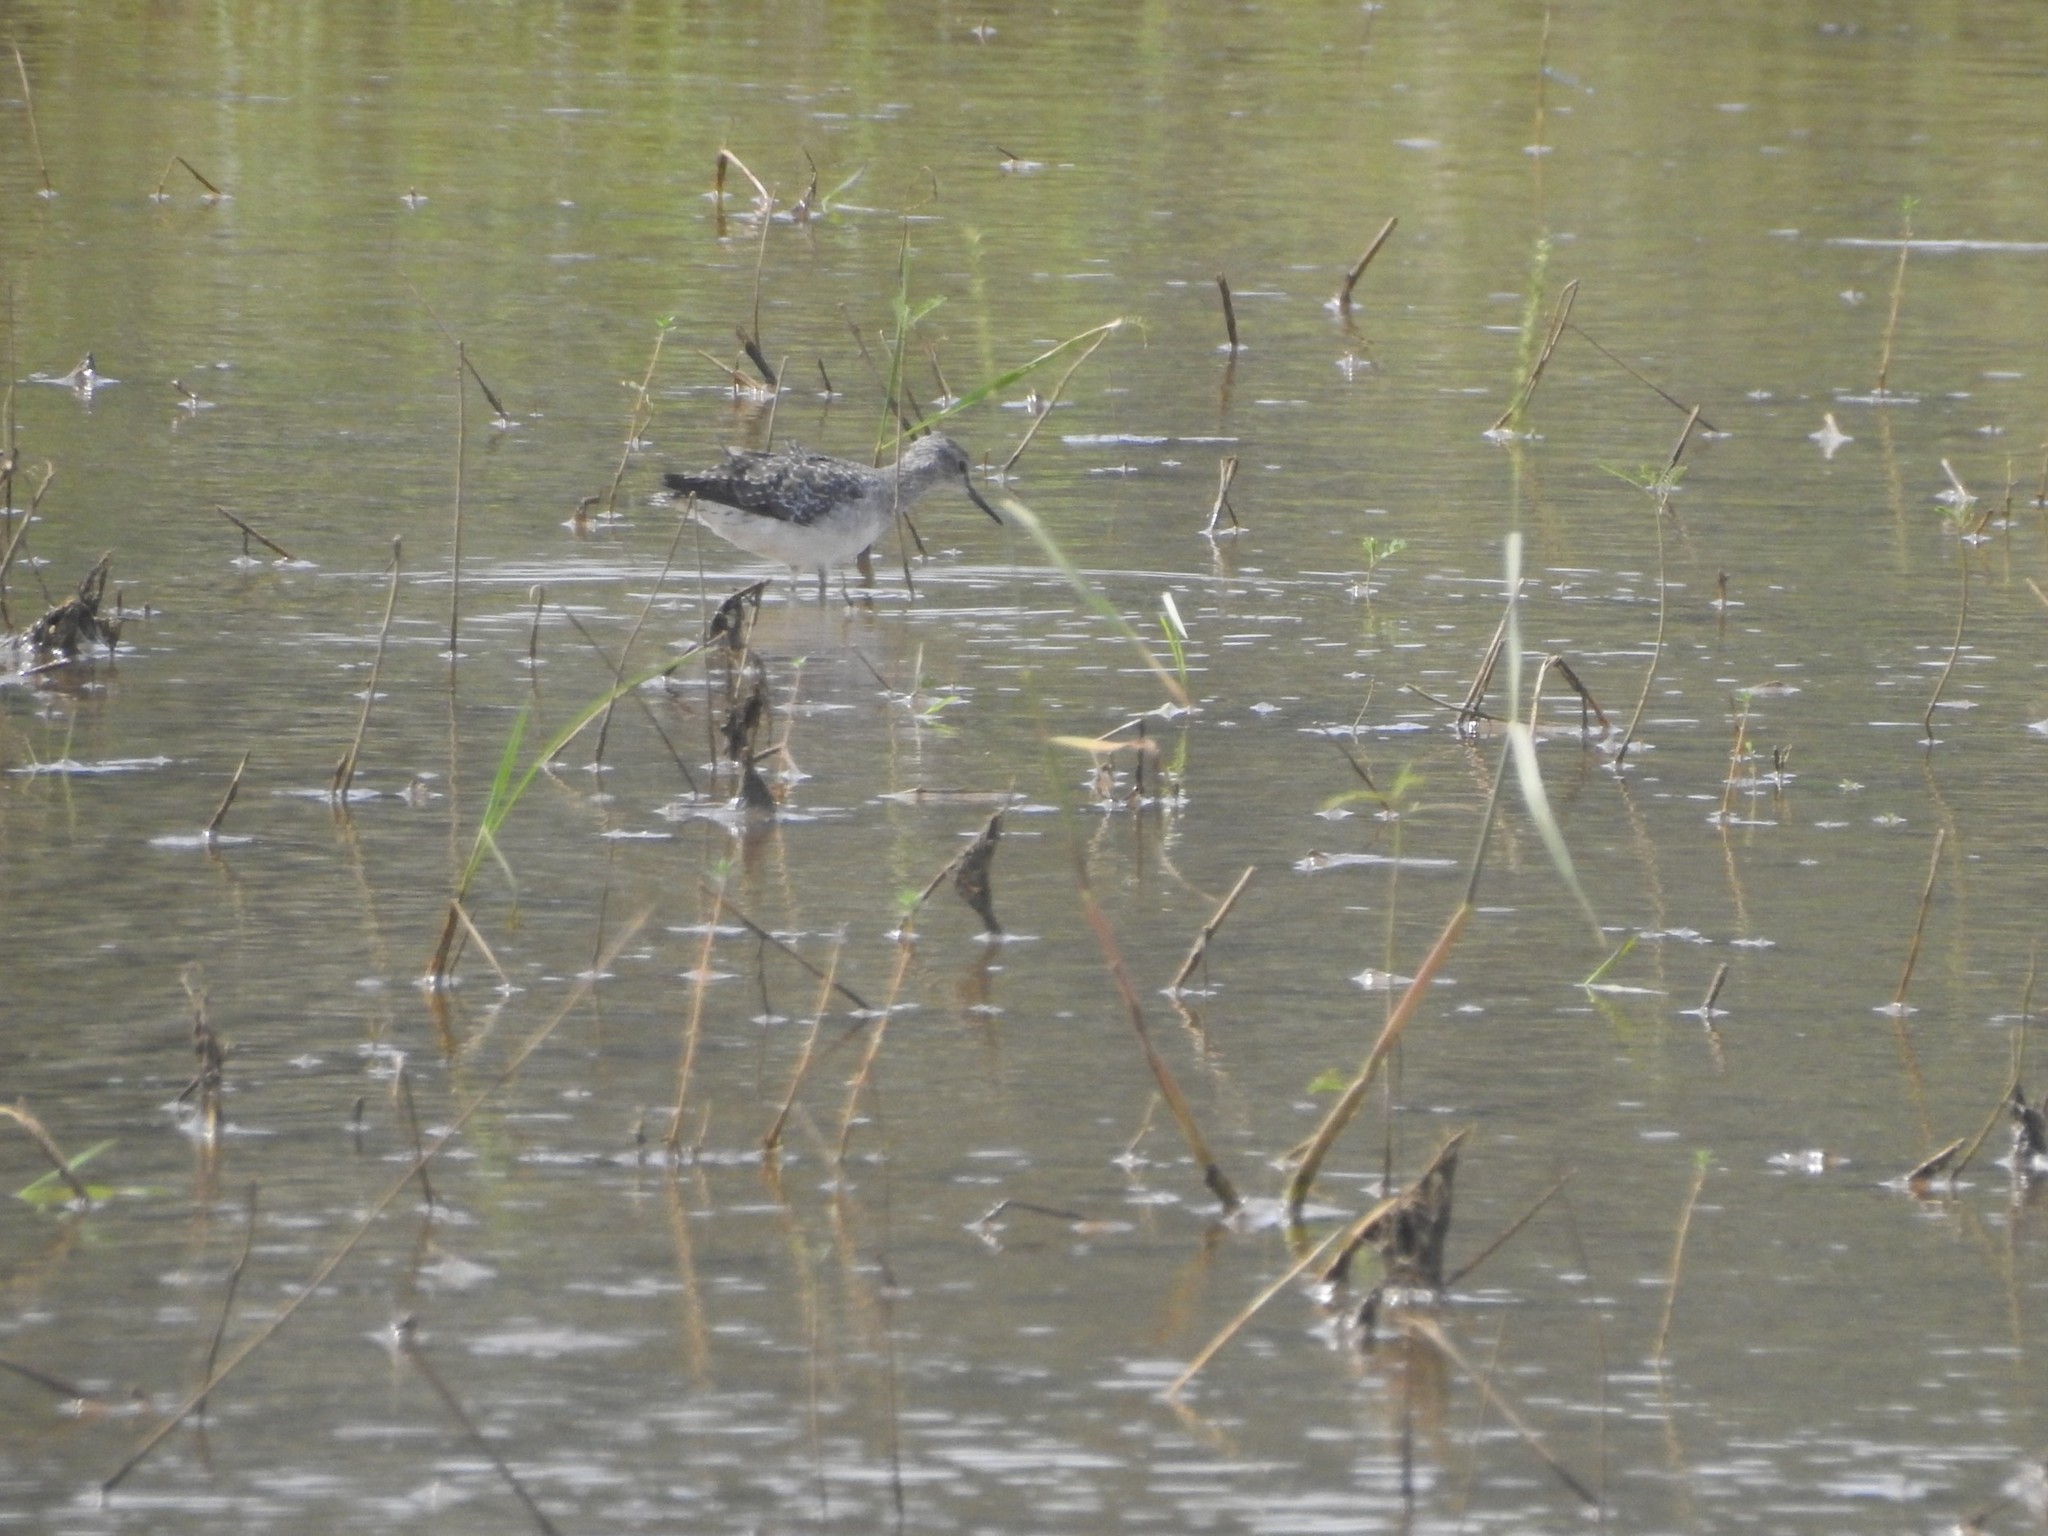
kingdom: Animalia
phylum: Chordata
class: Aves
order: Charadriiformes
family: Scolopacidae
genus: Tringa
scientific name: Tringa glareola
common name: Wood sandpiper
